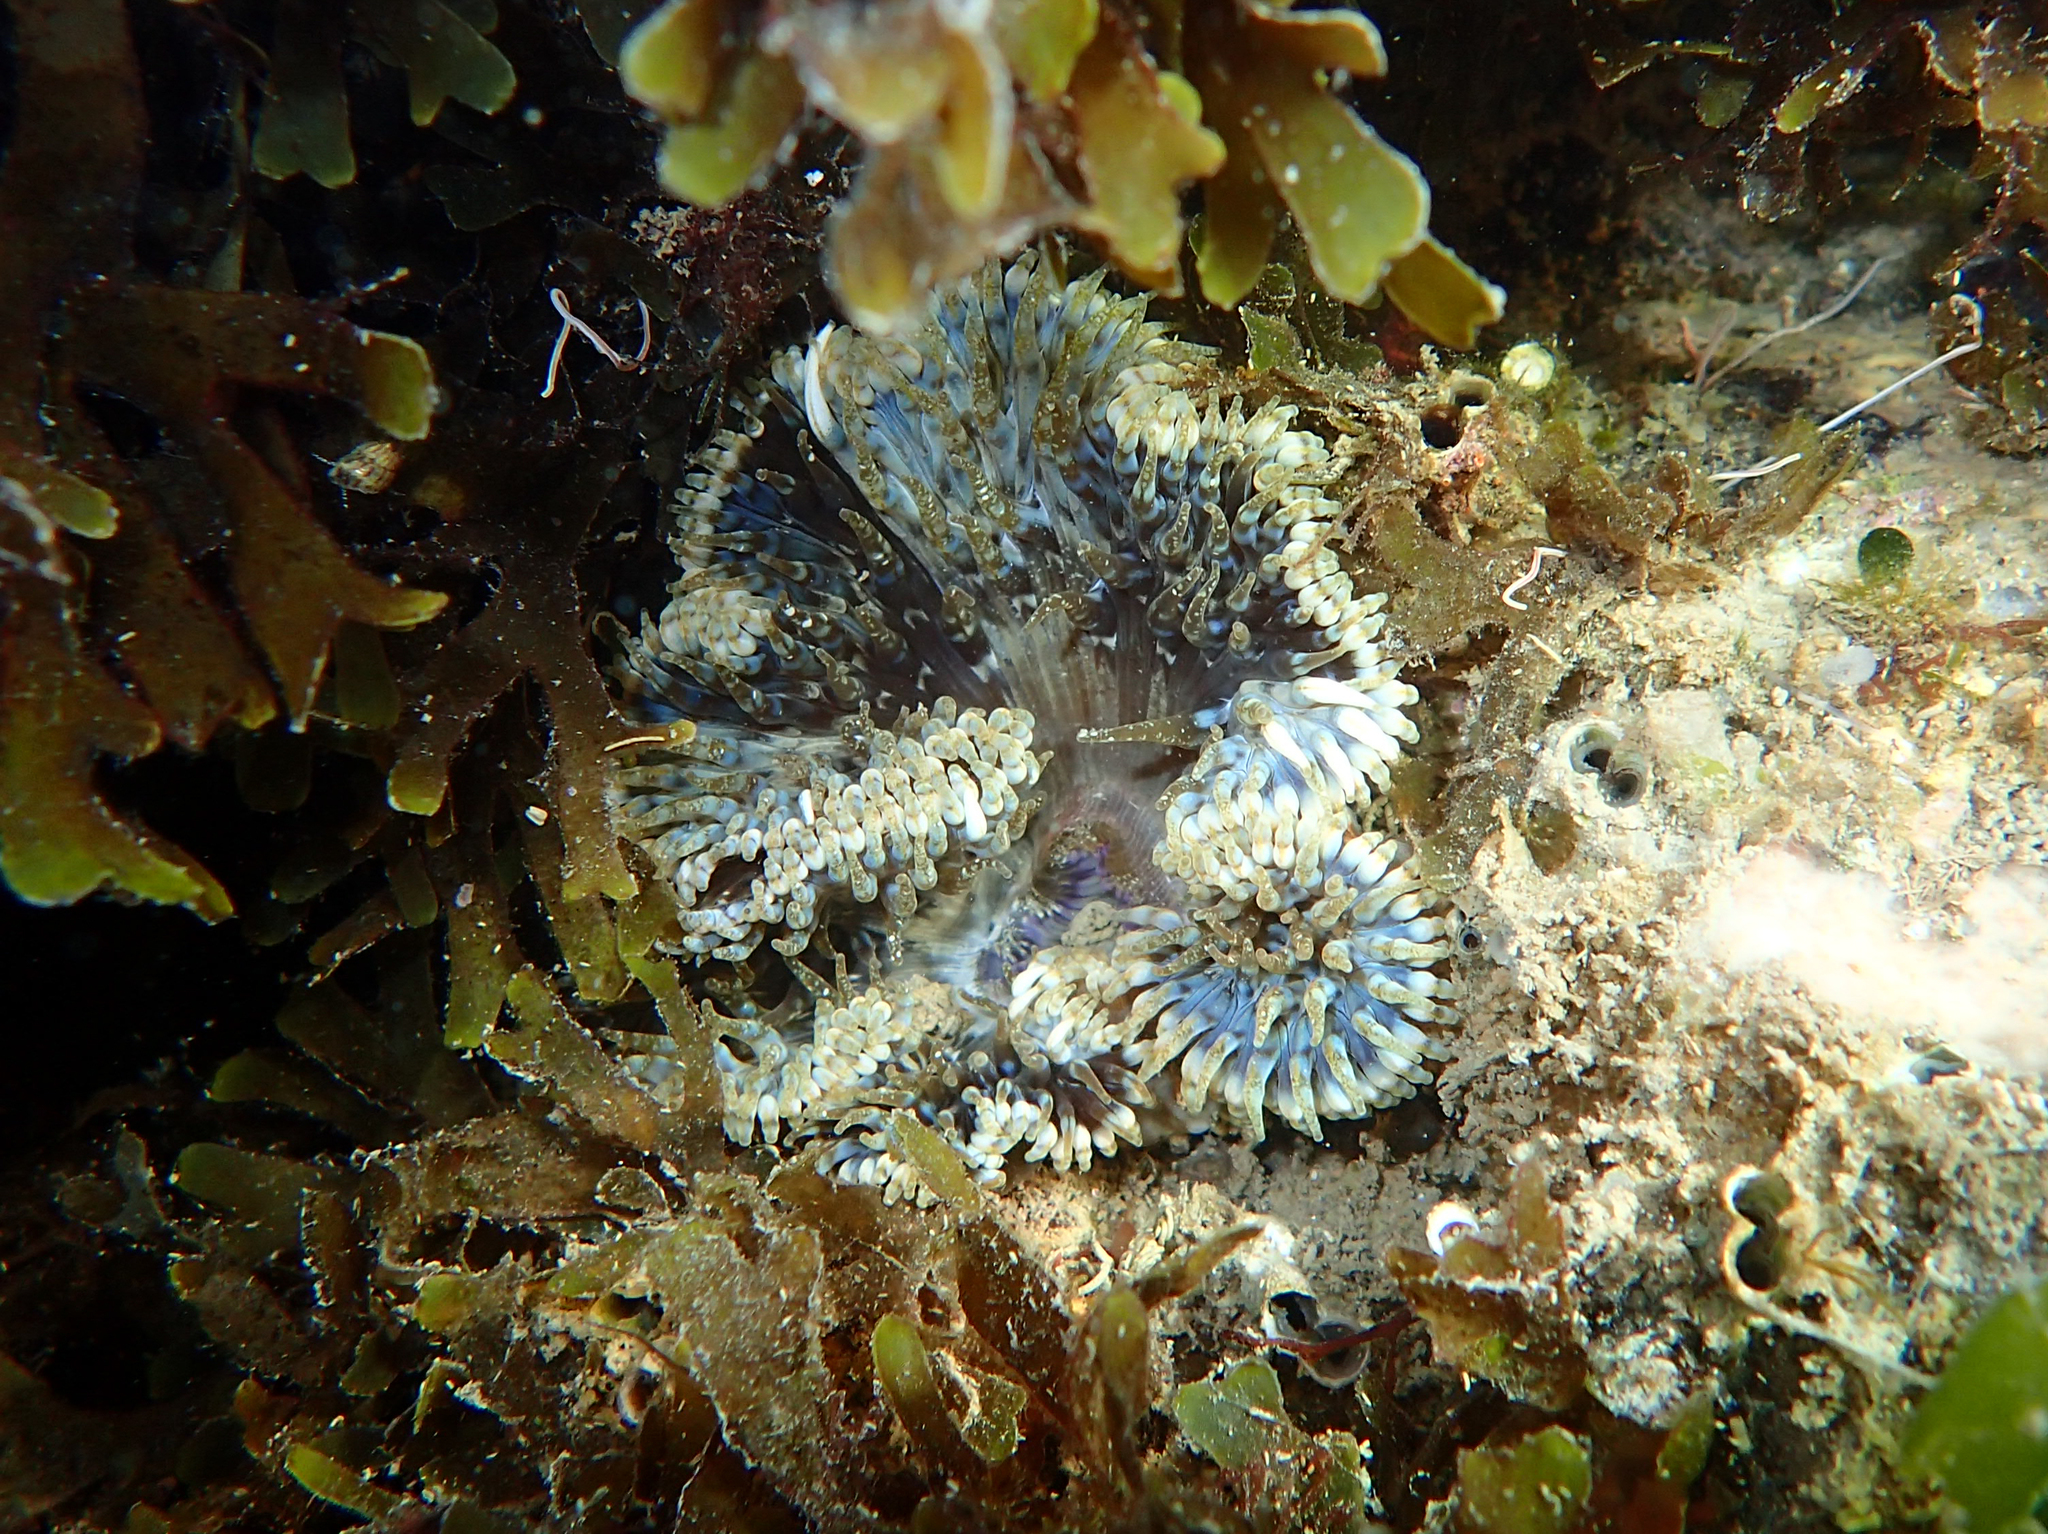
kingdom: Animalia
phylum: Cnidaria
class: Anthozoa
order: Actiniaria
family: Sagartiidae
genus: Cereus
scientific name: Cereus pedunculatus
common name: Daisy anemone
